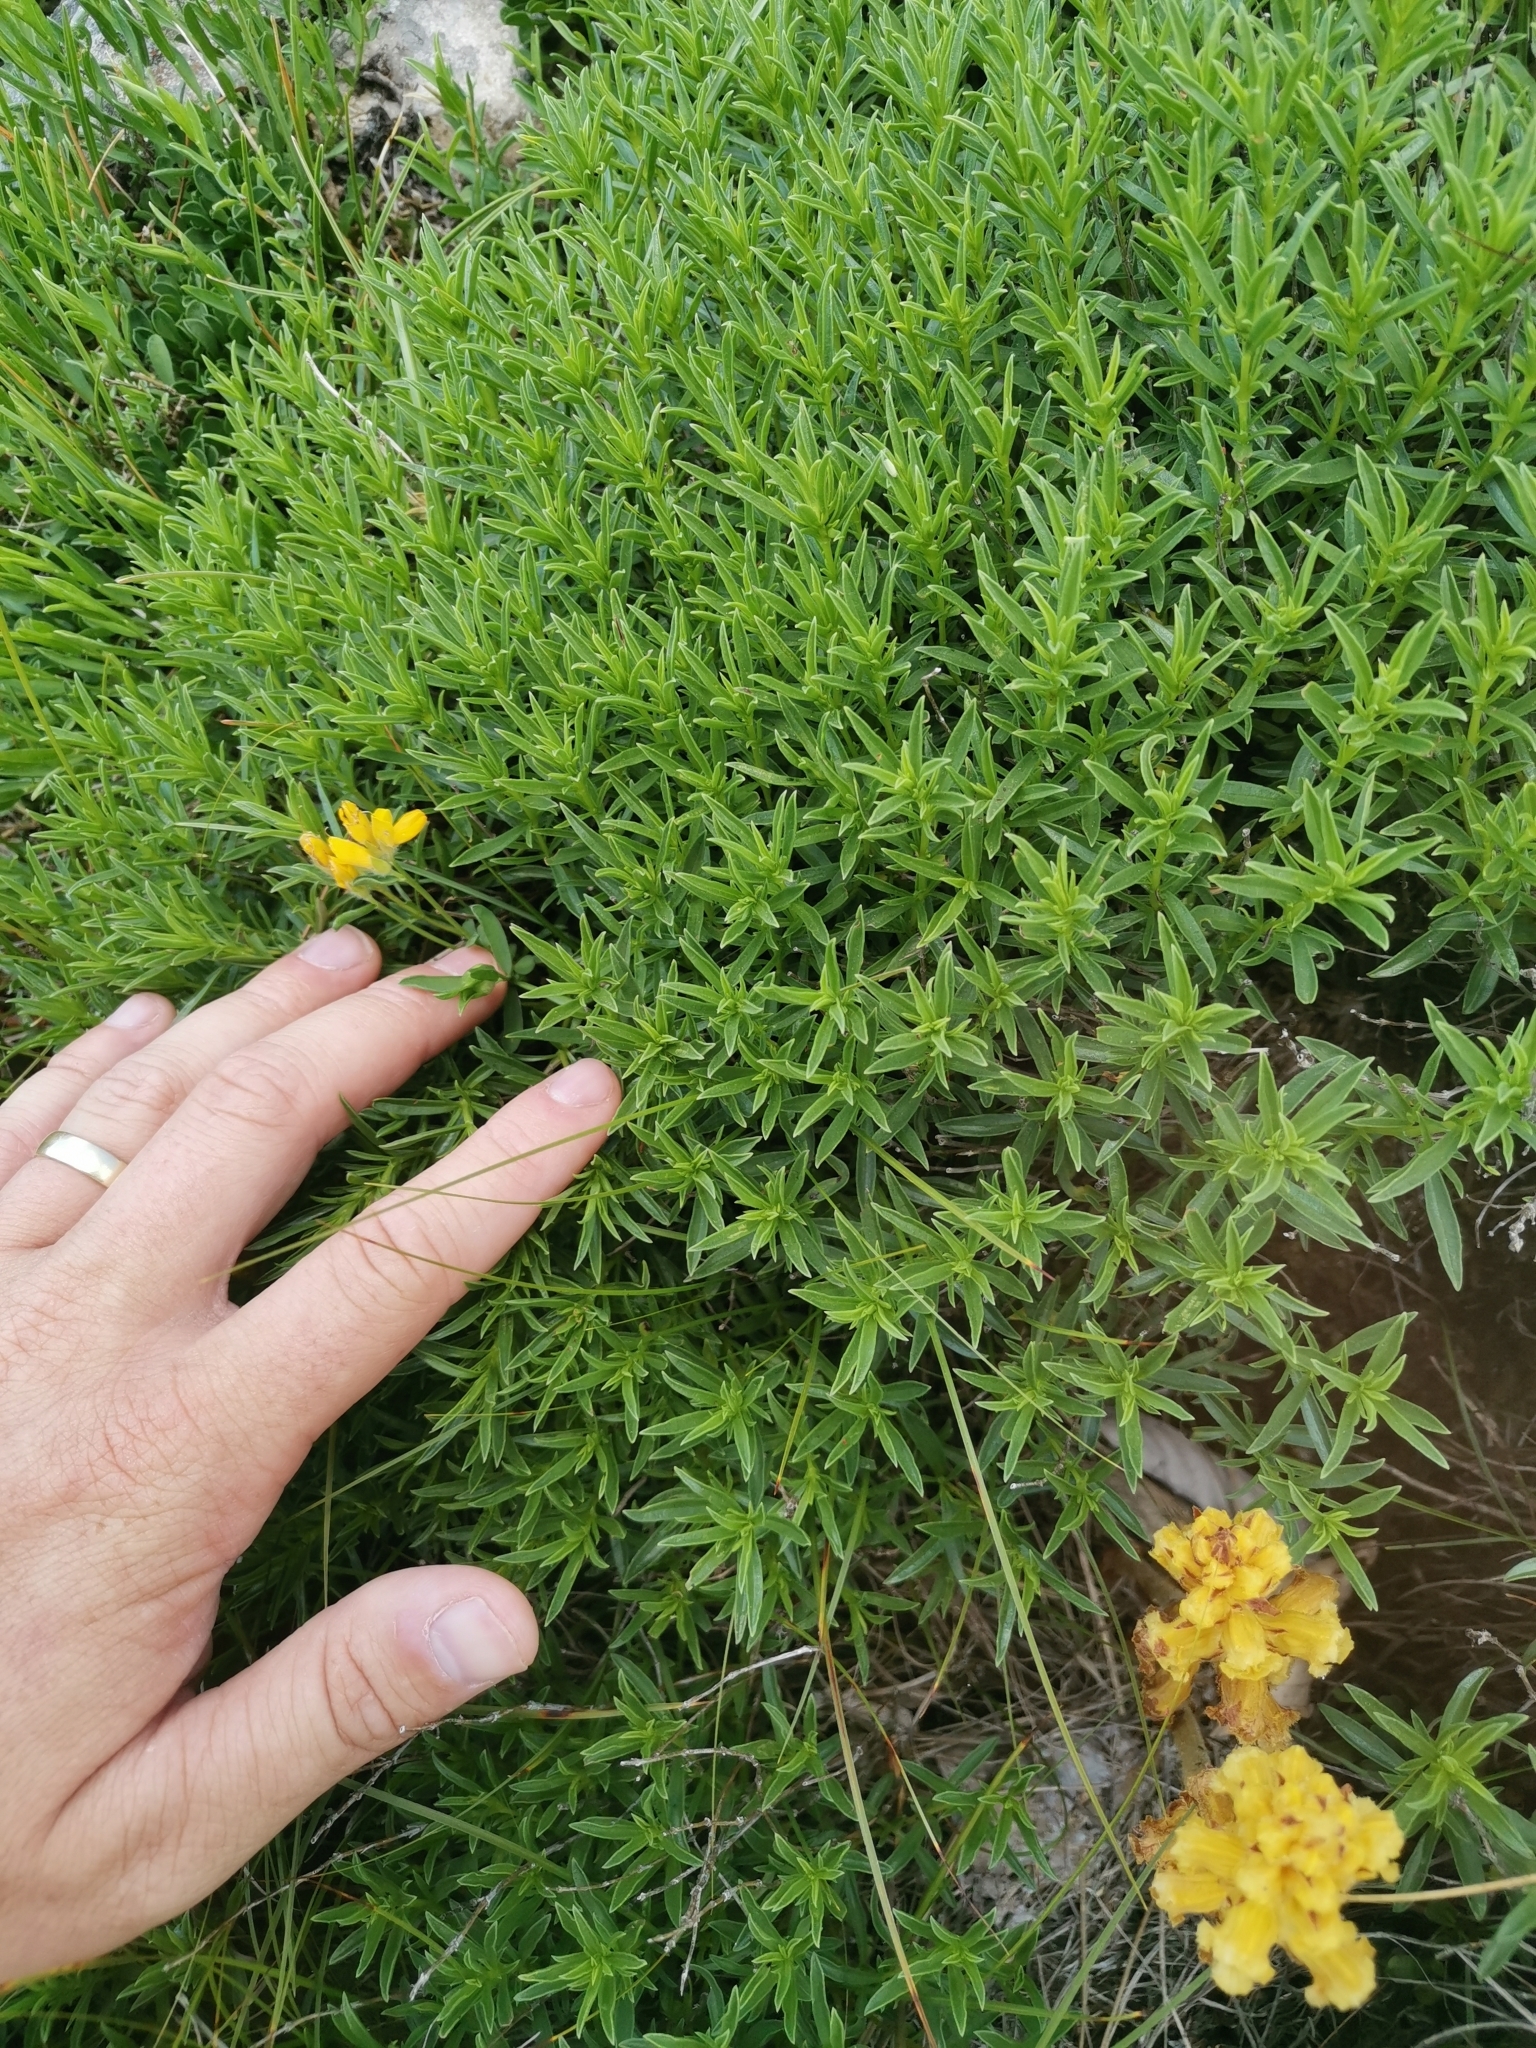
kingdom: Plantae
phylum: Tracheophyta
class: Magnoliopsida
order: Lamiales
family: Orobanchaceae
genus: Orobanche
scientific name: Orobanche gracilis
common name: Slender broomrape
